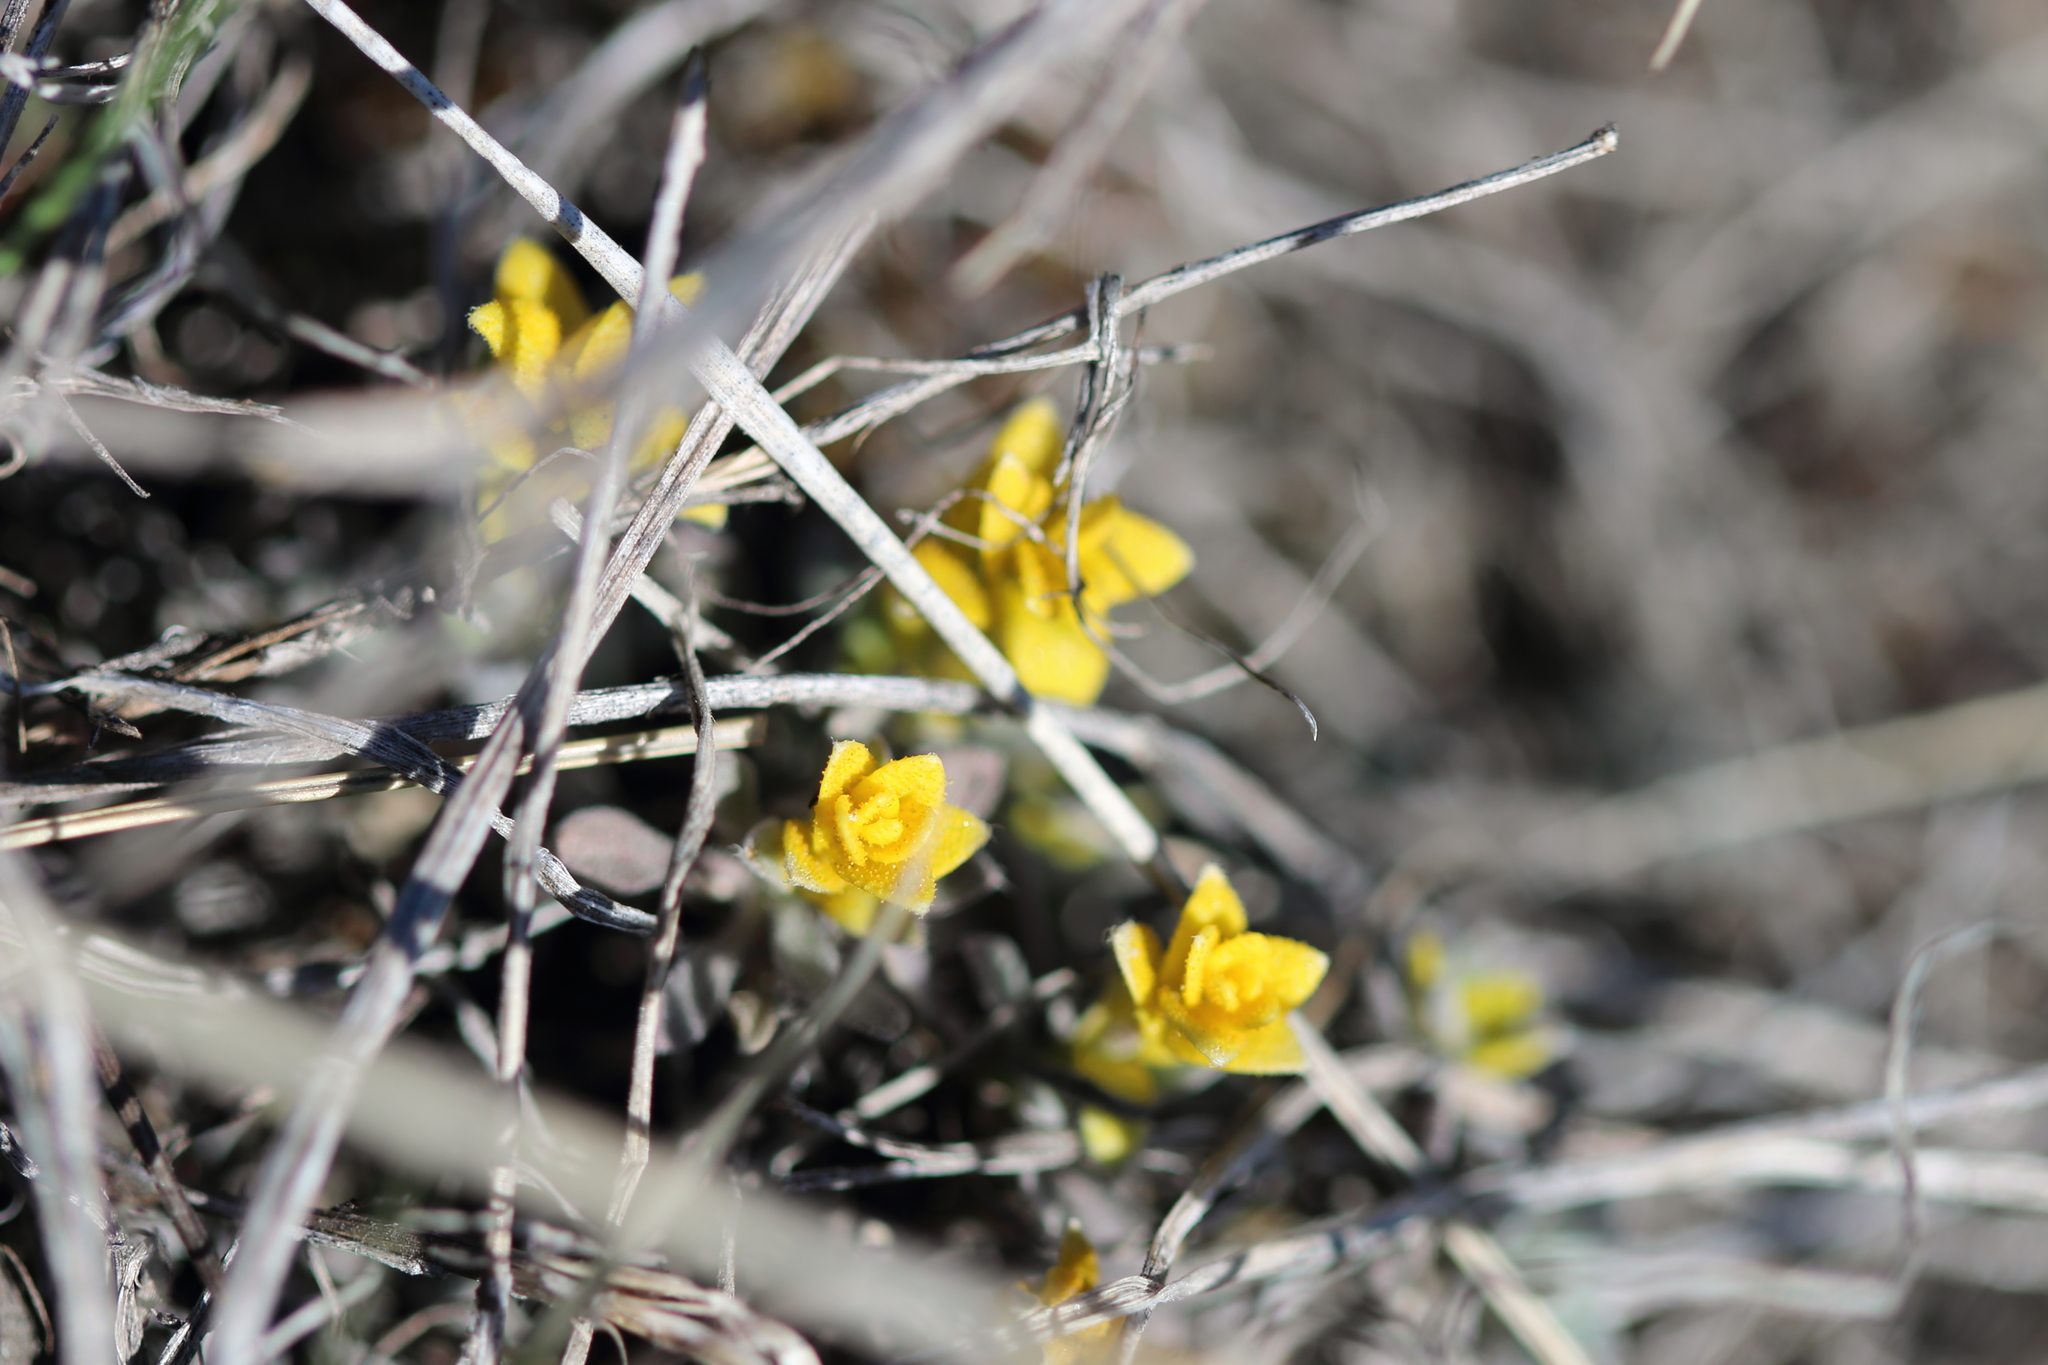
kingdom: Fungi
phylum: Basidiomycota
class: Pucciniomycetes
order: Pucciniales
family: Pucciniaceae
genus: Puccinia
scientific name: Puccinia monoica
